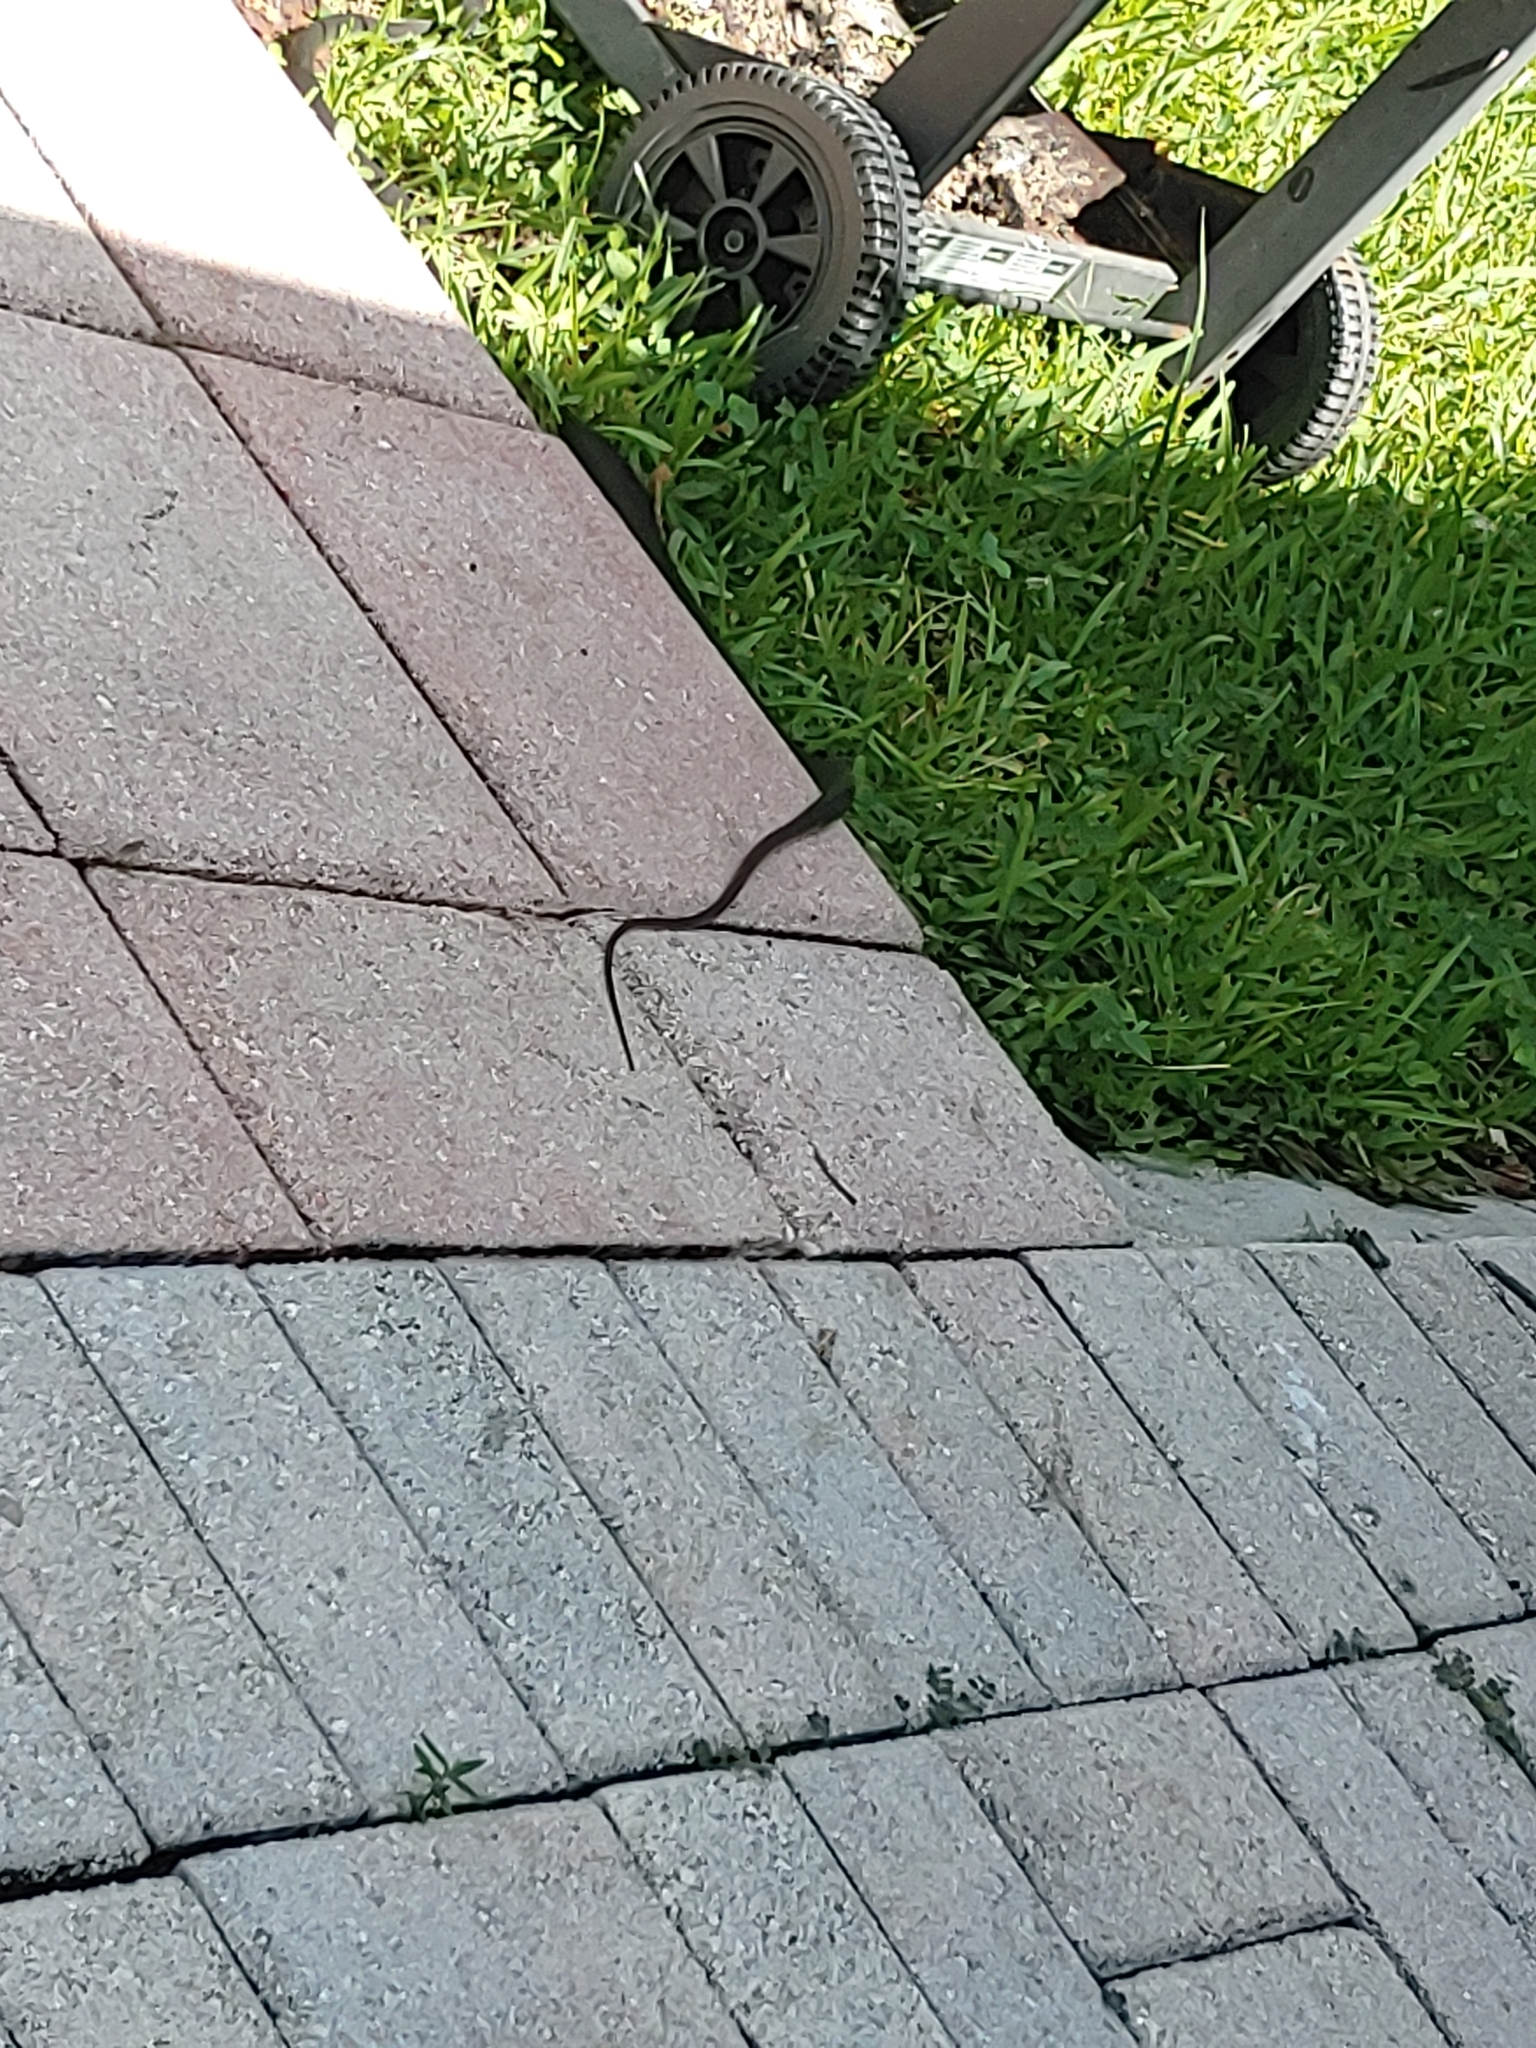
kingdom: Animalia
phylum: Chordata
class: Squamata
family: Colubridae
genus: Coluber
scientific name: Coluber constrictor
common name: Eastern racer
